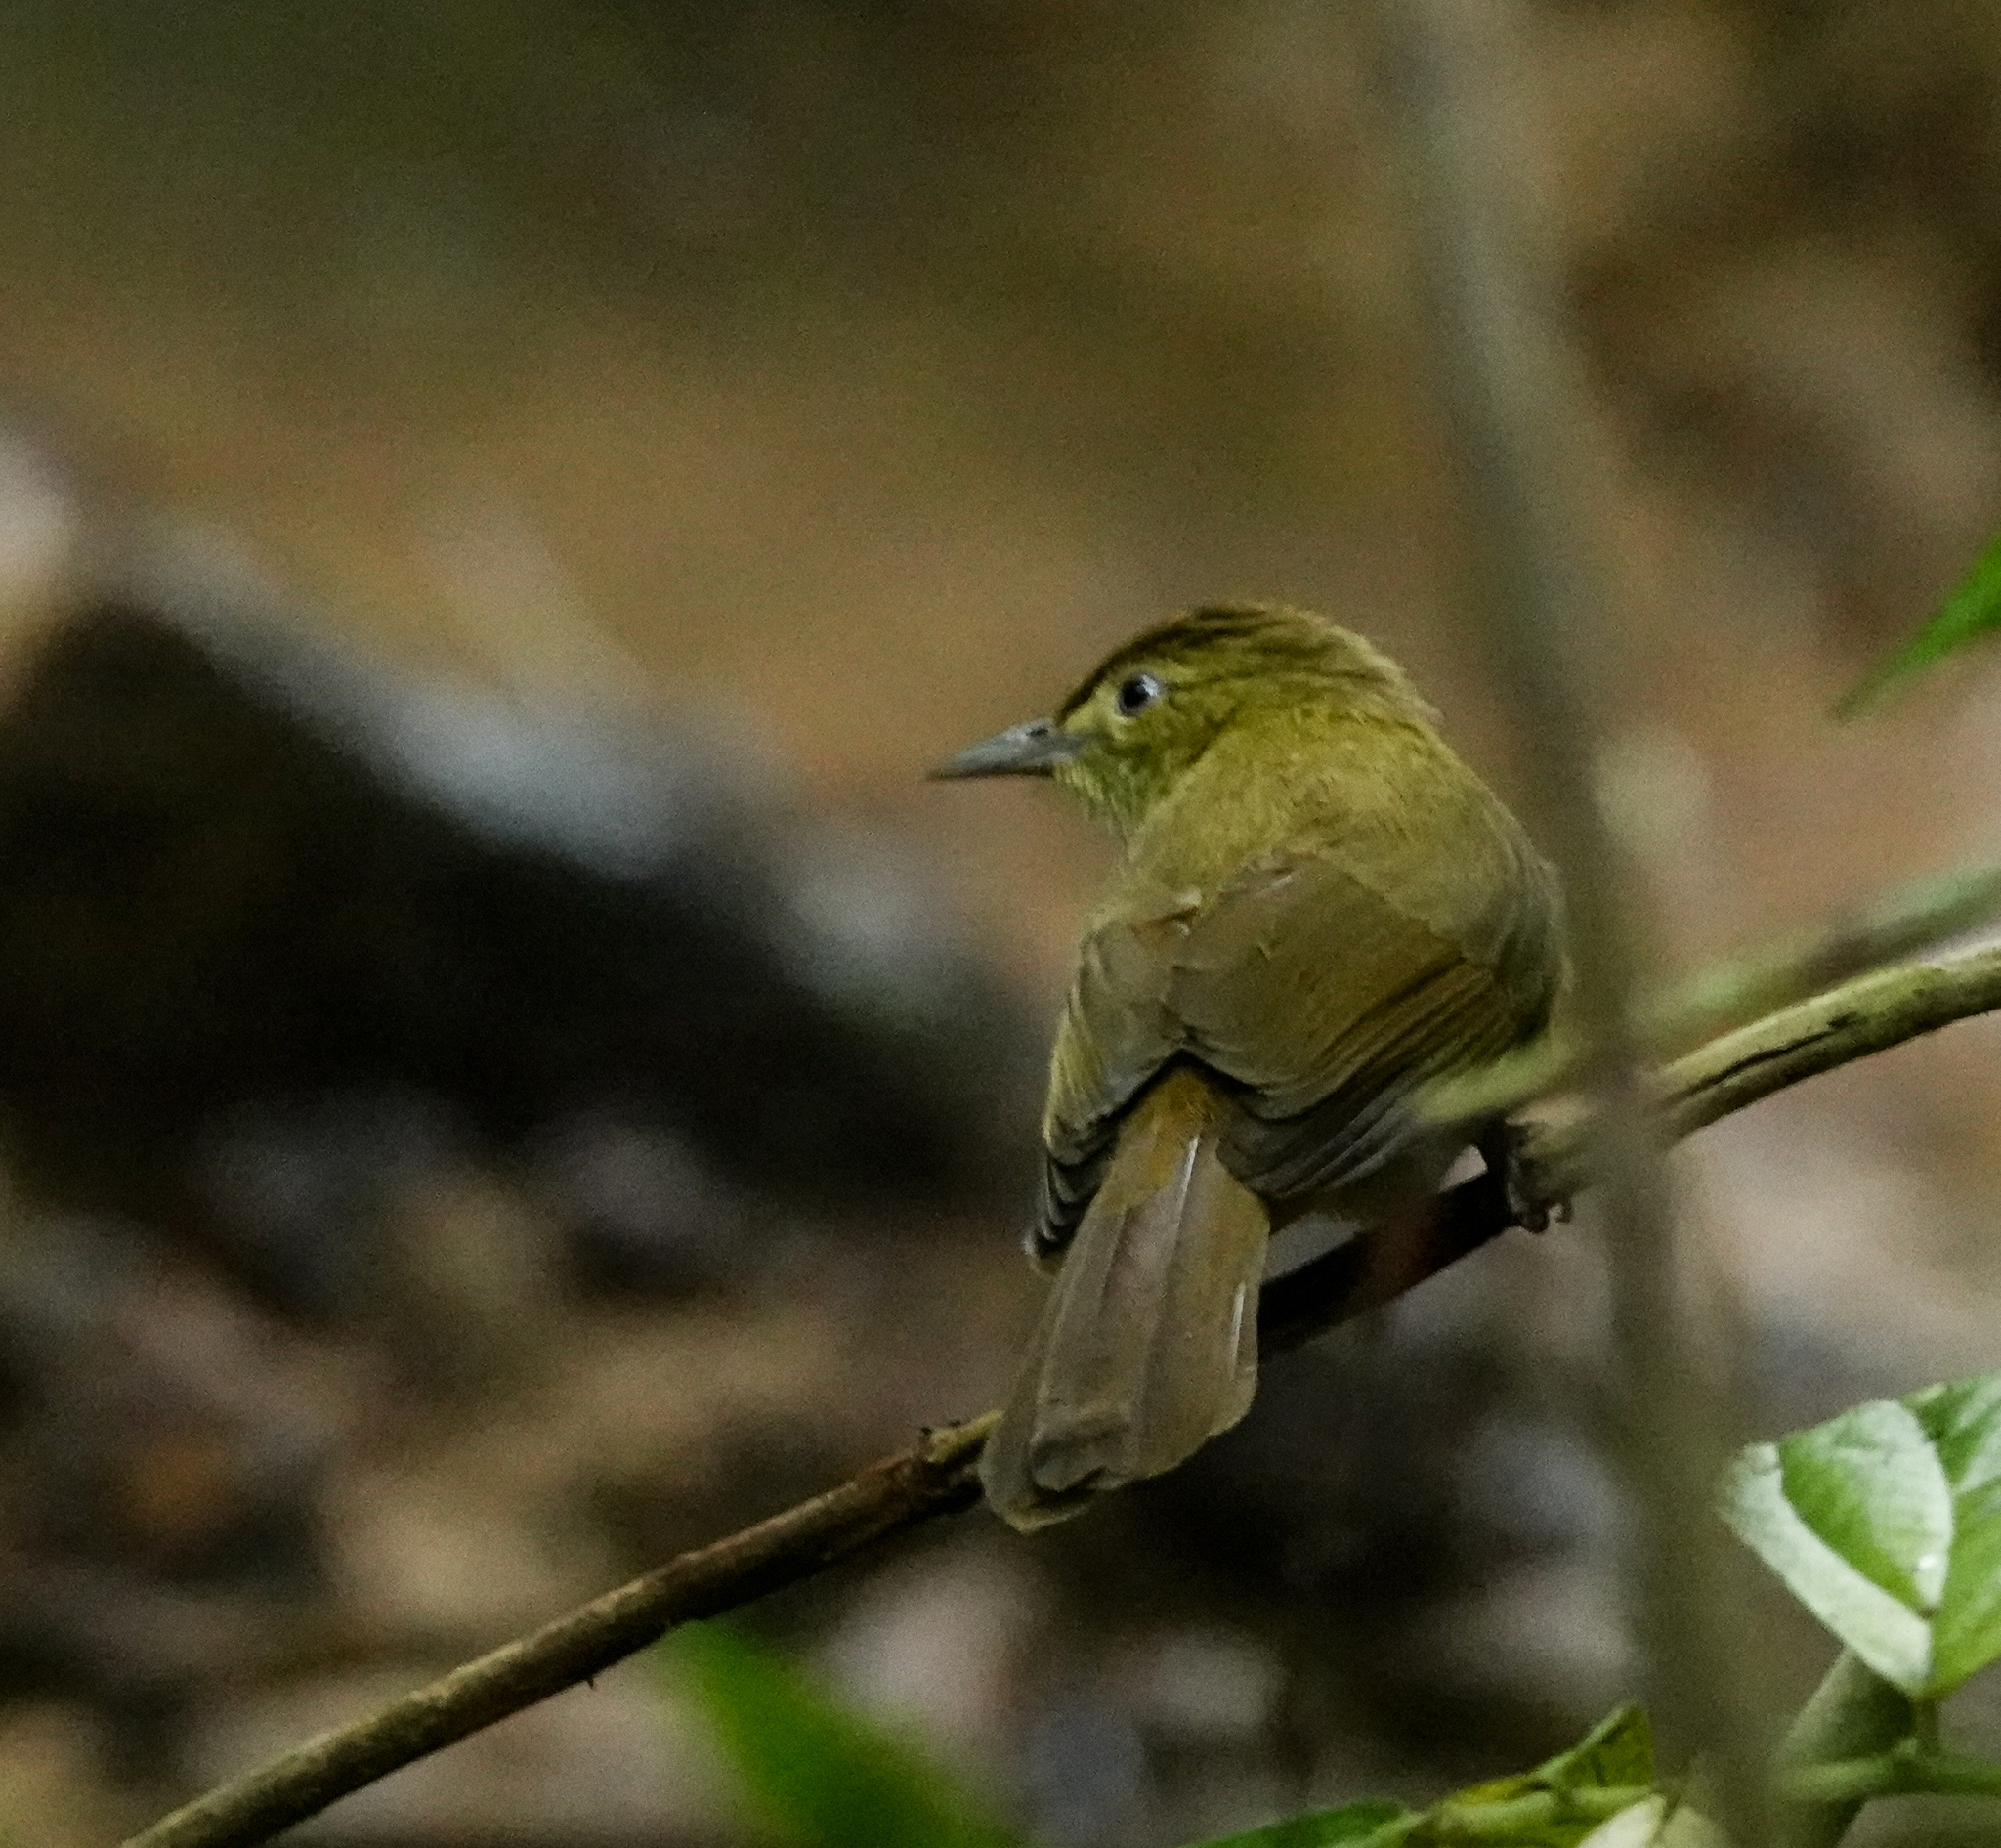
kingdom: Animalia
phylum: Chordata
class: Aves
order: Passeriformes
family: Pycnonotidae
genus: Iole
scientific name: Iole virescens
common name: Olive bulbul
